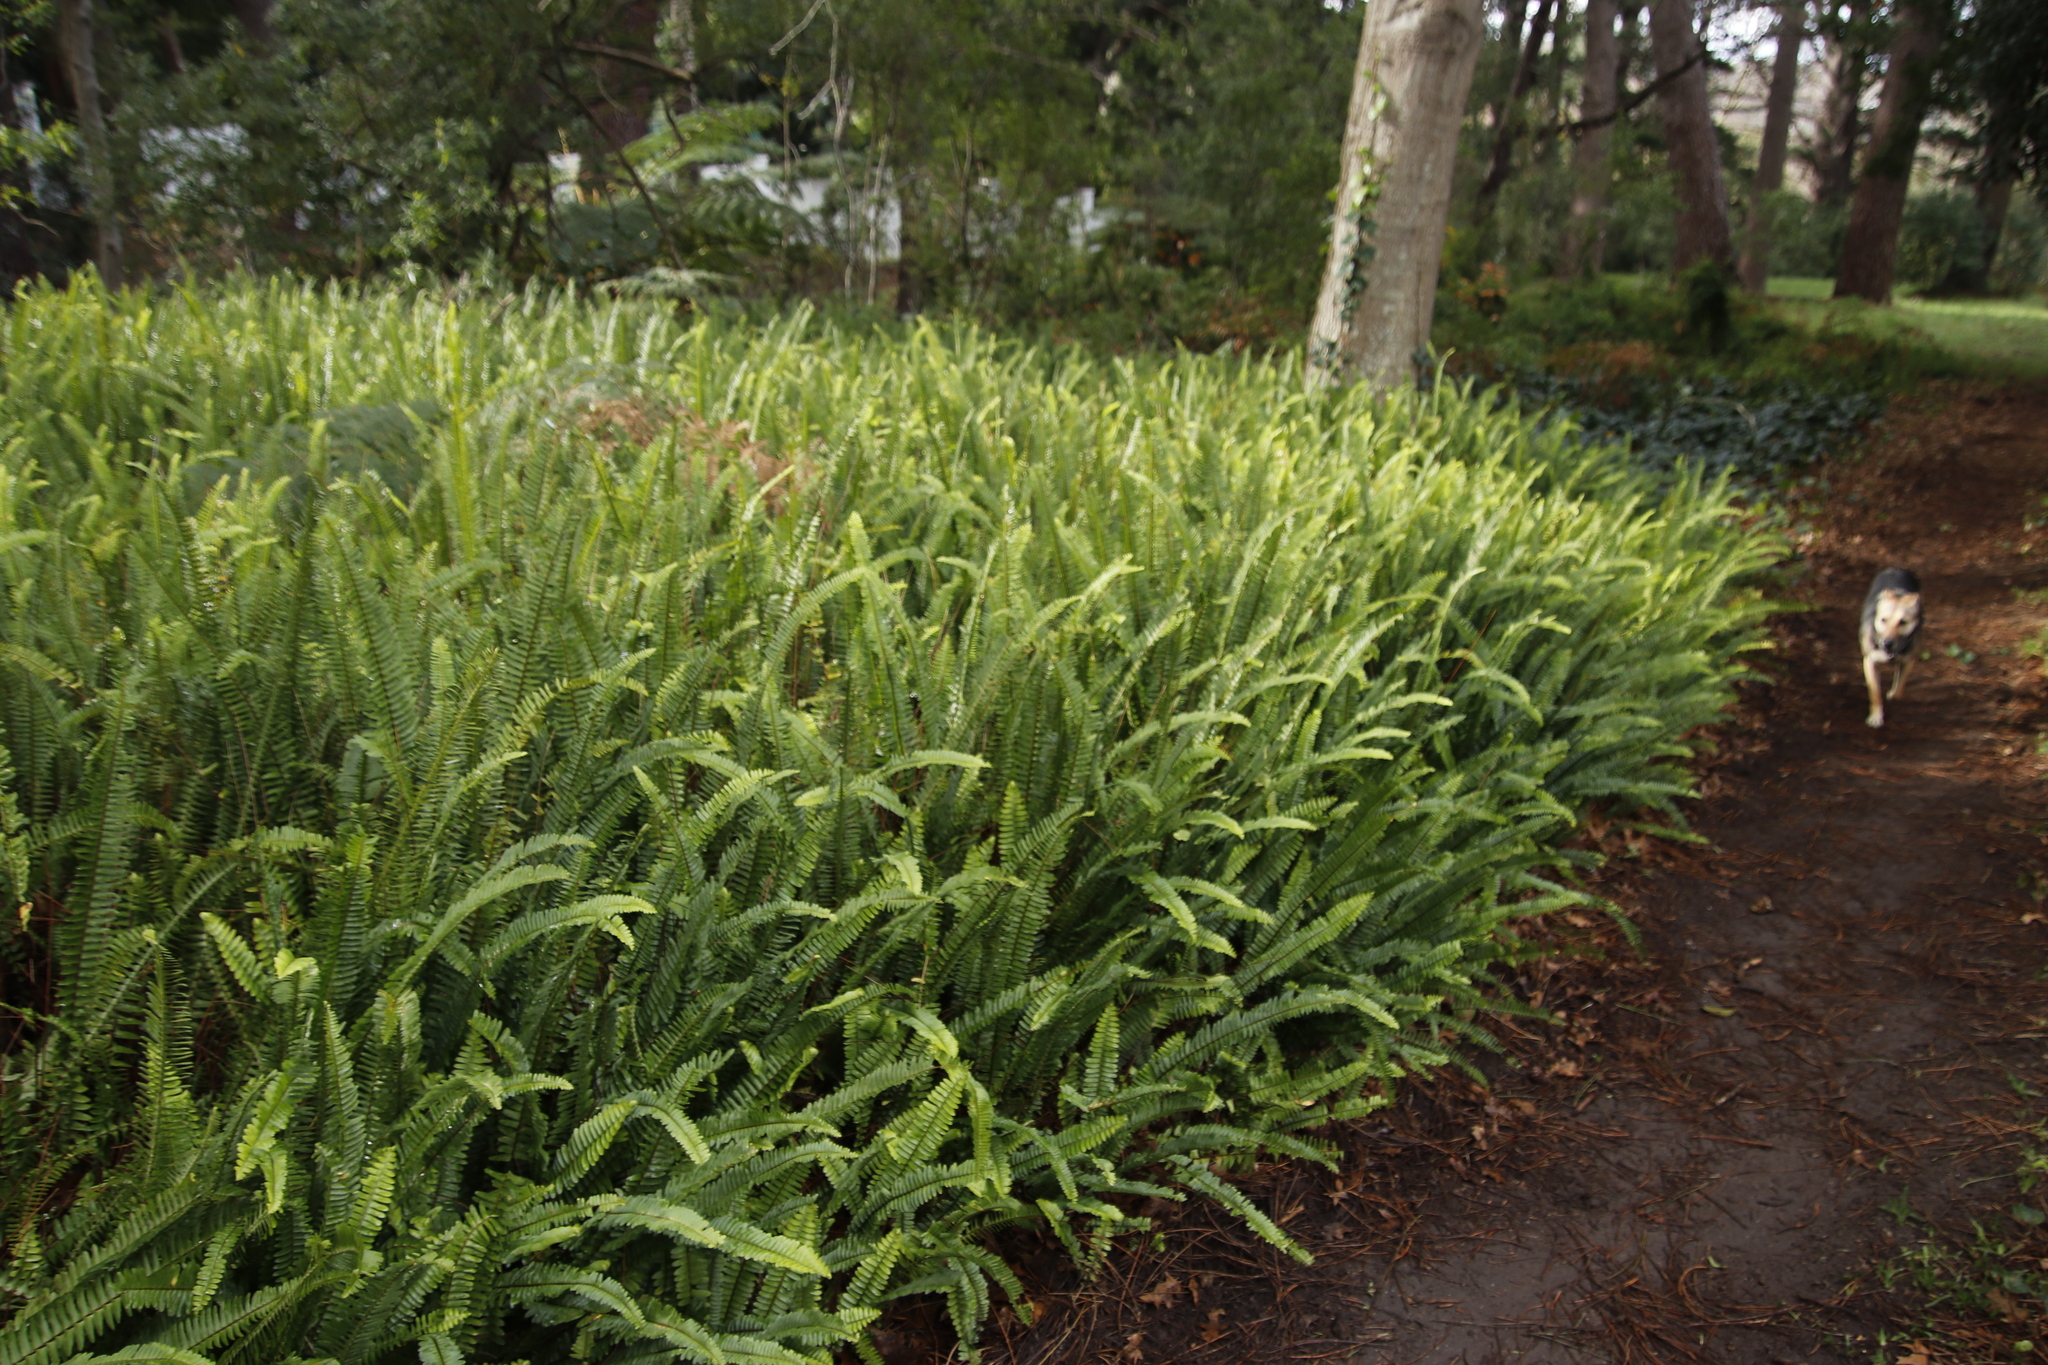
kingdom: Plantae
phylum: Tracheophyta
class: Polypodiopsida
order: Polypodiales
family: Nephrolepidaceae
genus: Nephrolepis
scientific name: Nephrolepis cordifolia
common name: Narrow swordfern
